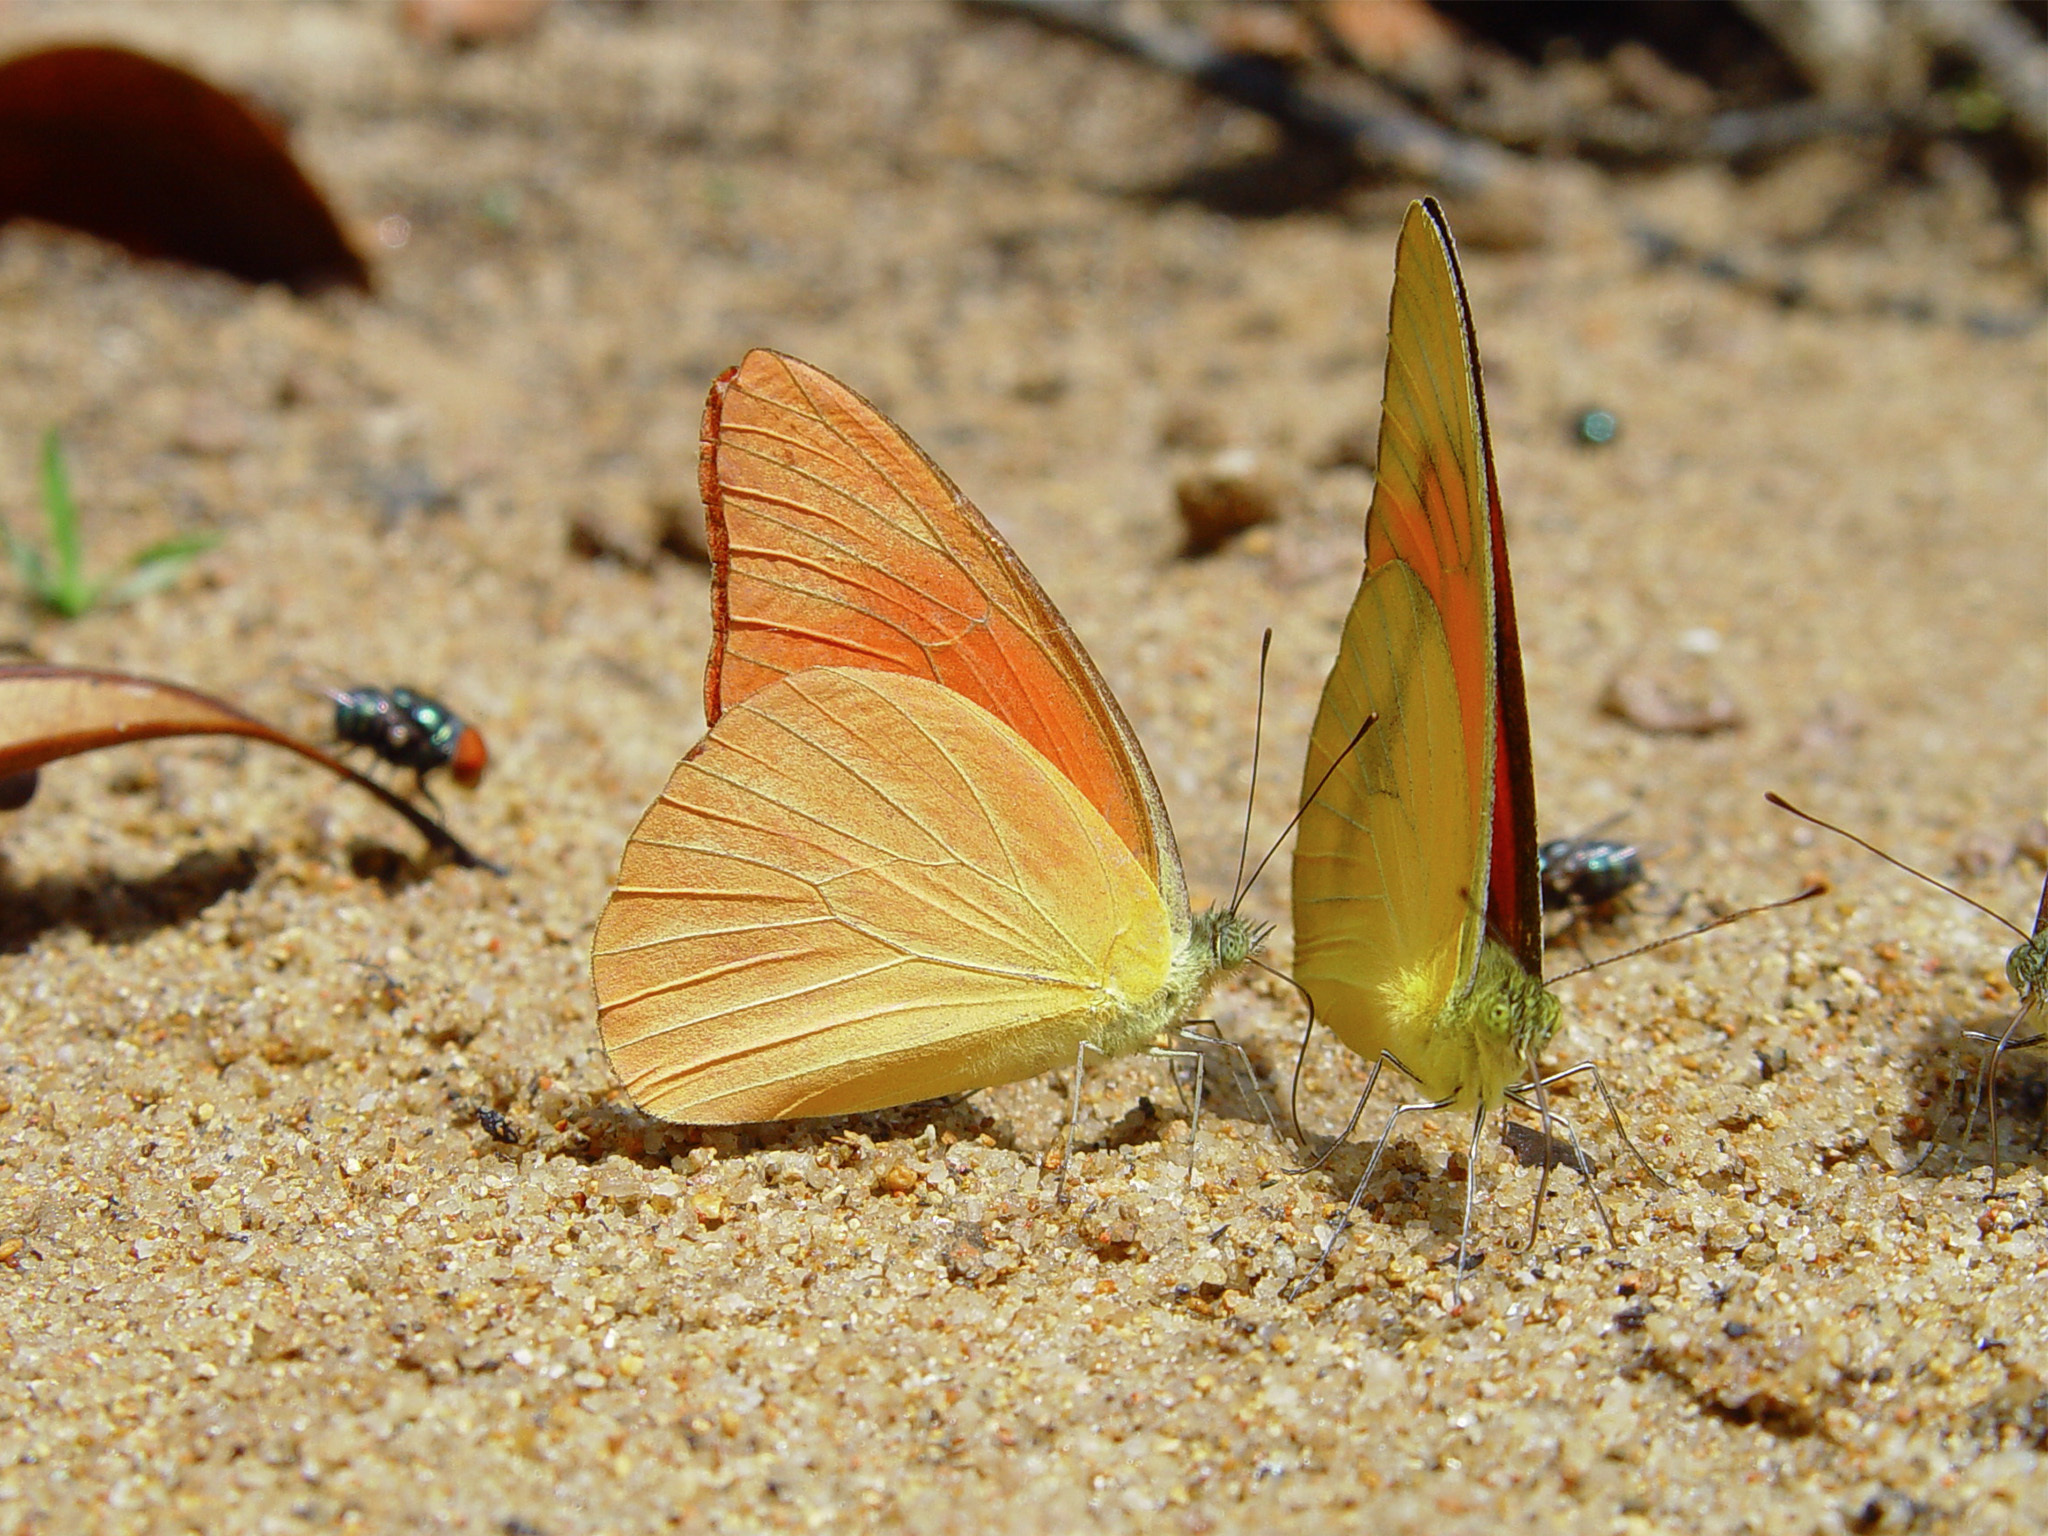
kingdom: Animalia
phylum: Arthropoda
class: Insecta
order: Lepidoptera
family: Pieridae
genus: Appias
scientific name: Appias nero
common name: Orange albatross
